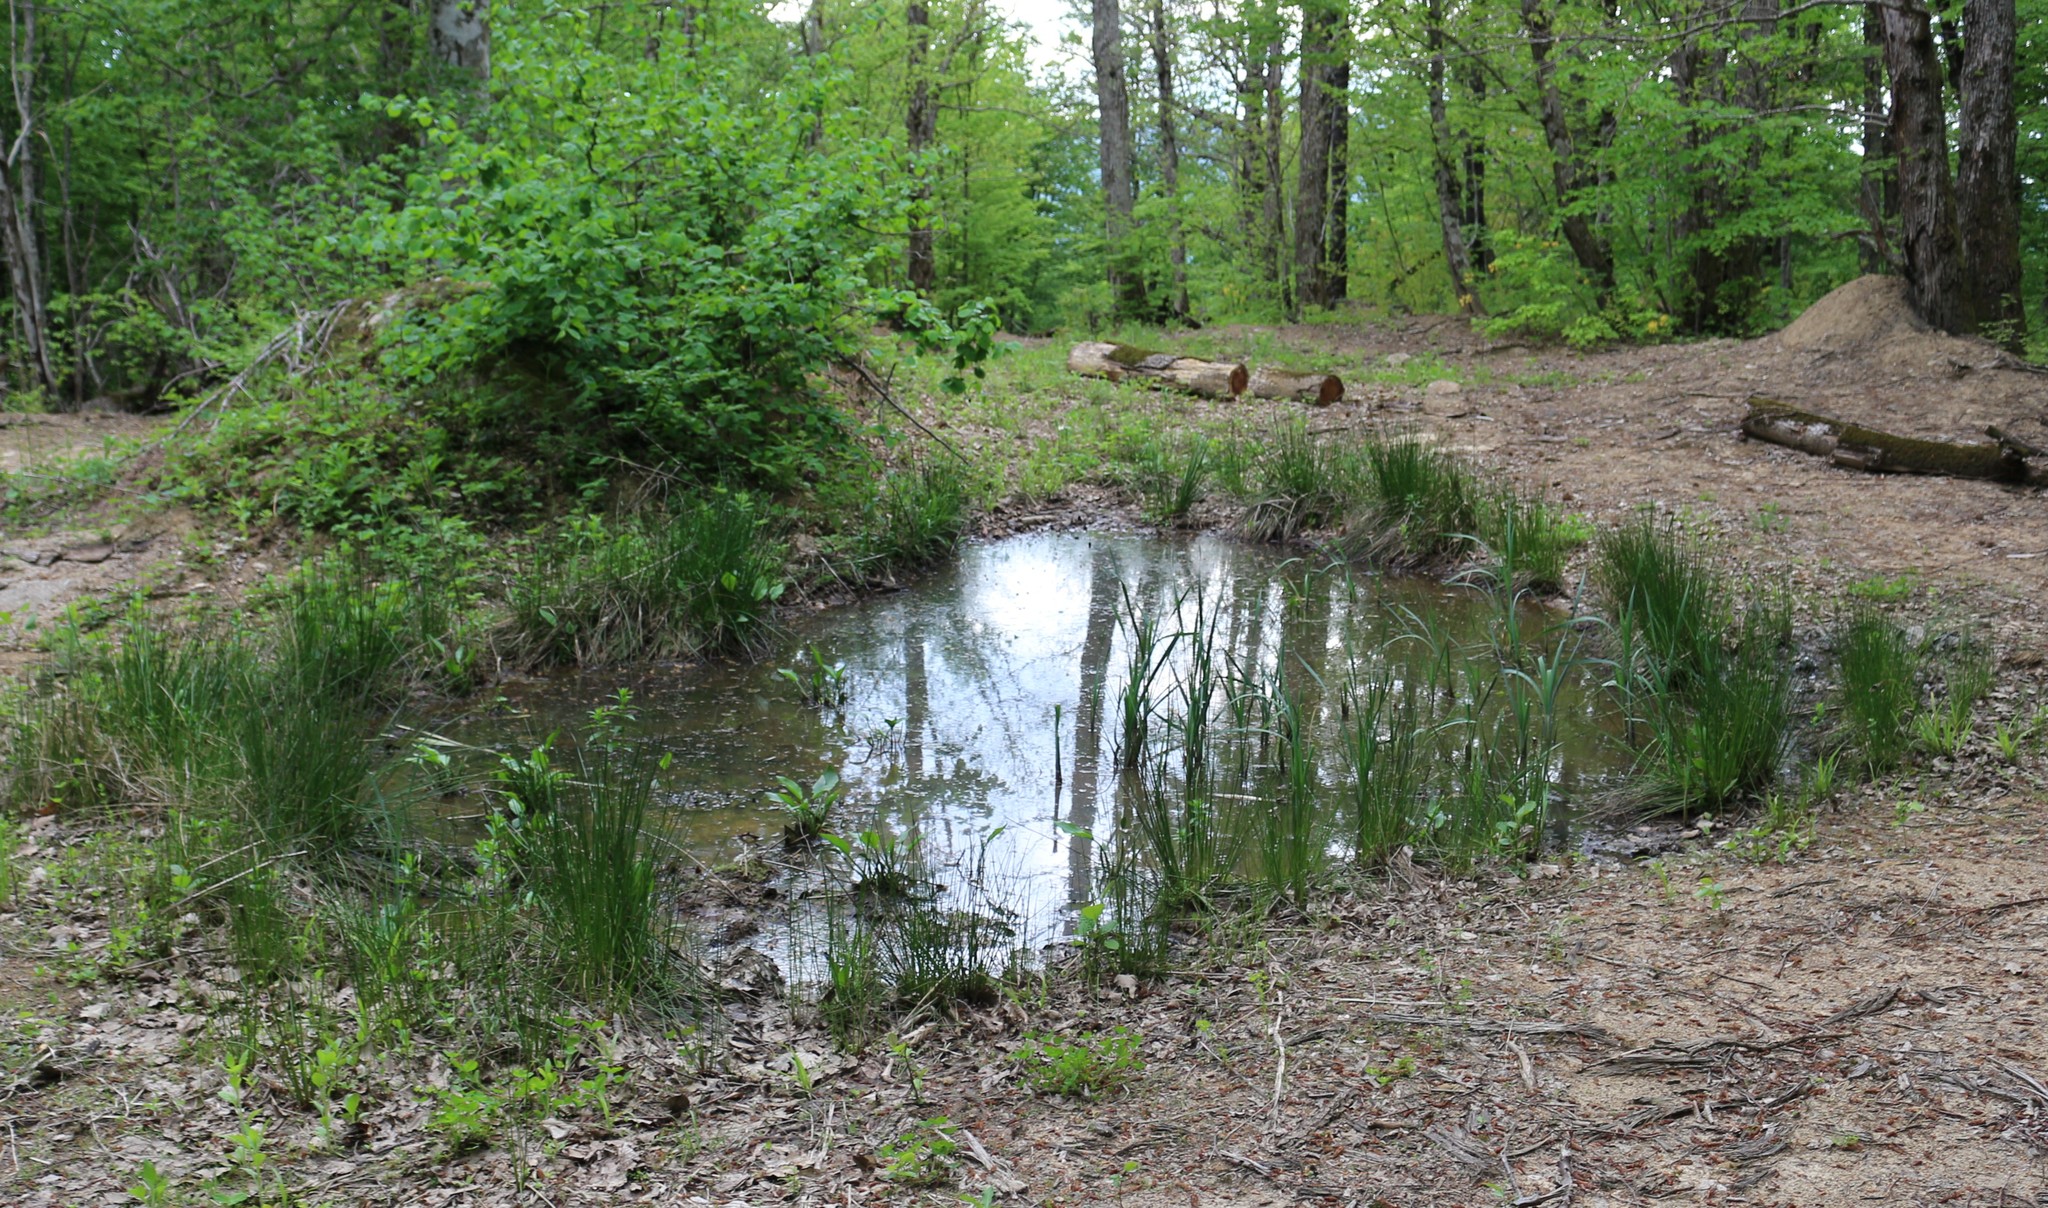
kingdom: Plantae
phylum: Tracheophyta
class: Liliopsida
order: Alismatales
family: Alismataceae
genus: Alisma
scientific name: Alisma plantago-aquatica
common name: Water-plantain
